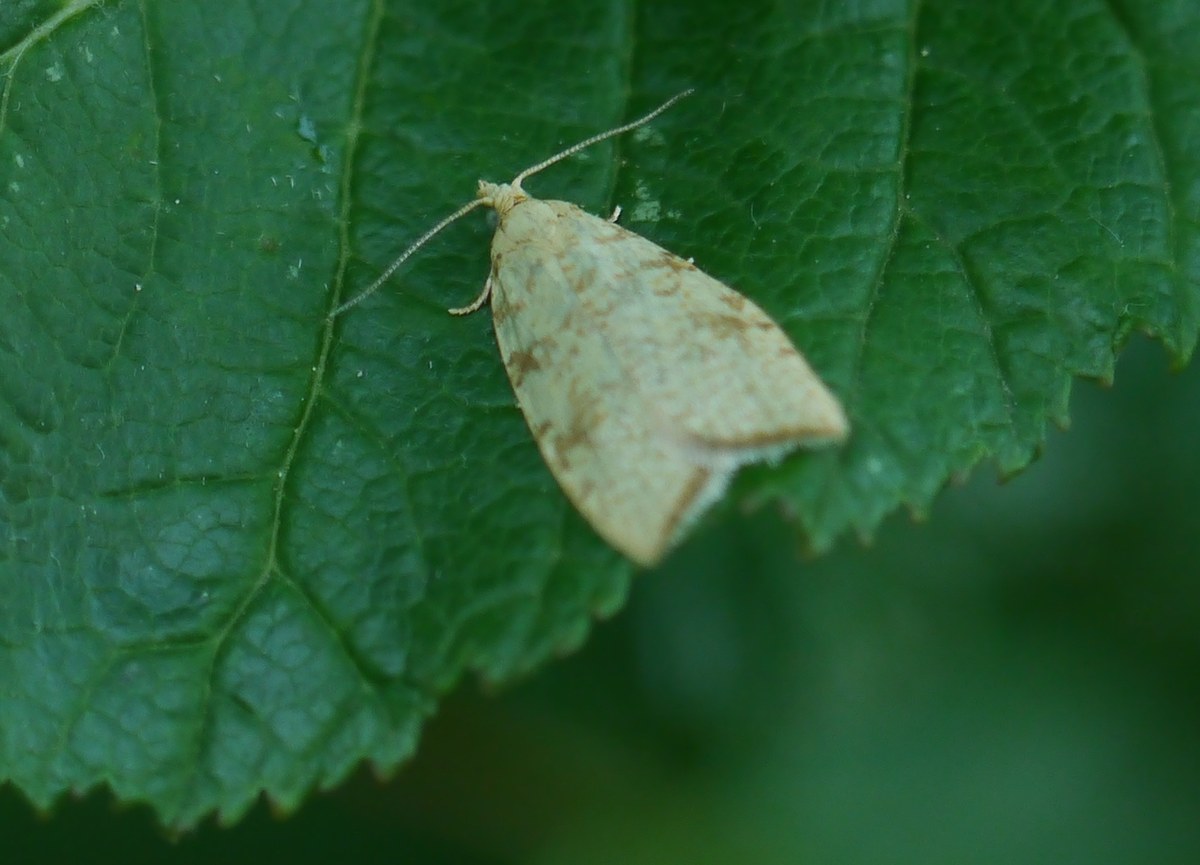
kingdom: Animalia
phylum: Arthropoda
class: Insecta
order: Lepidoptera
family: Tortricidae
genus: Aleimma
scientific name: Aleimma loeflingiana
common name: Yellow oak button
